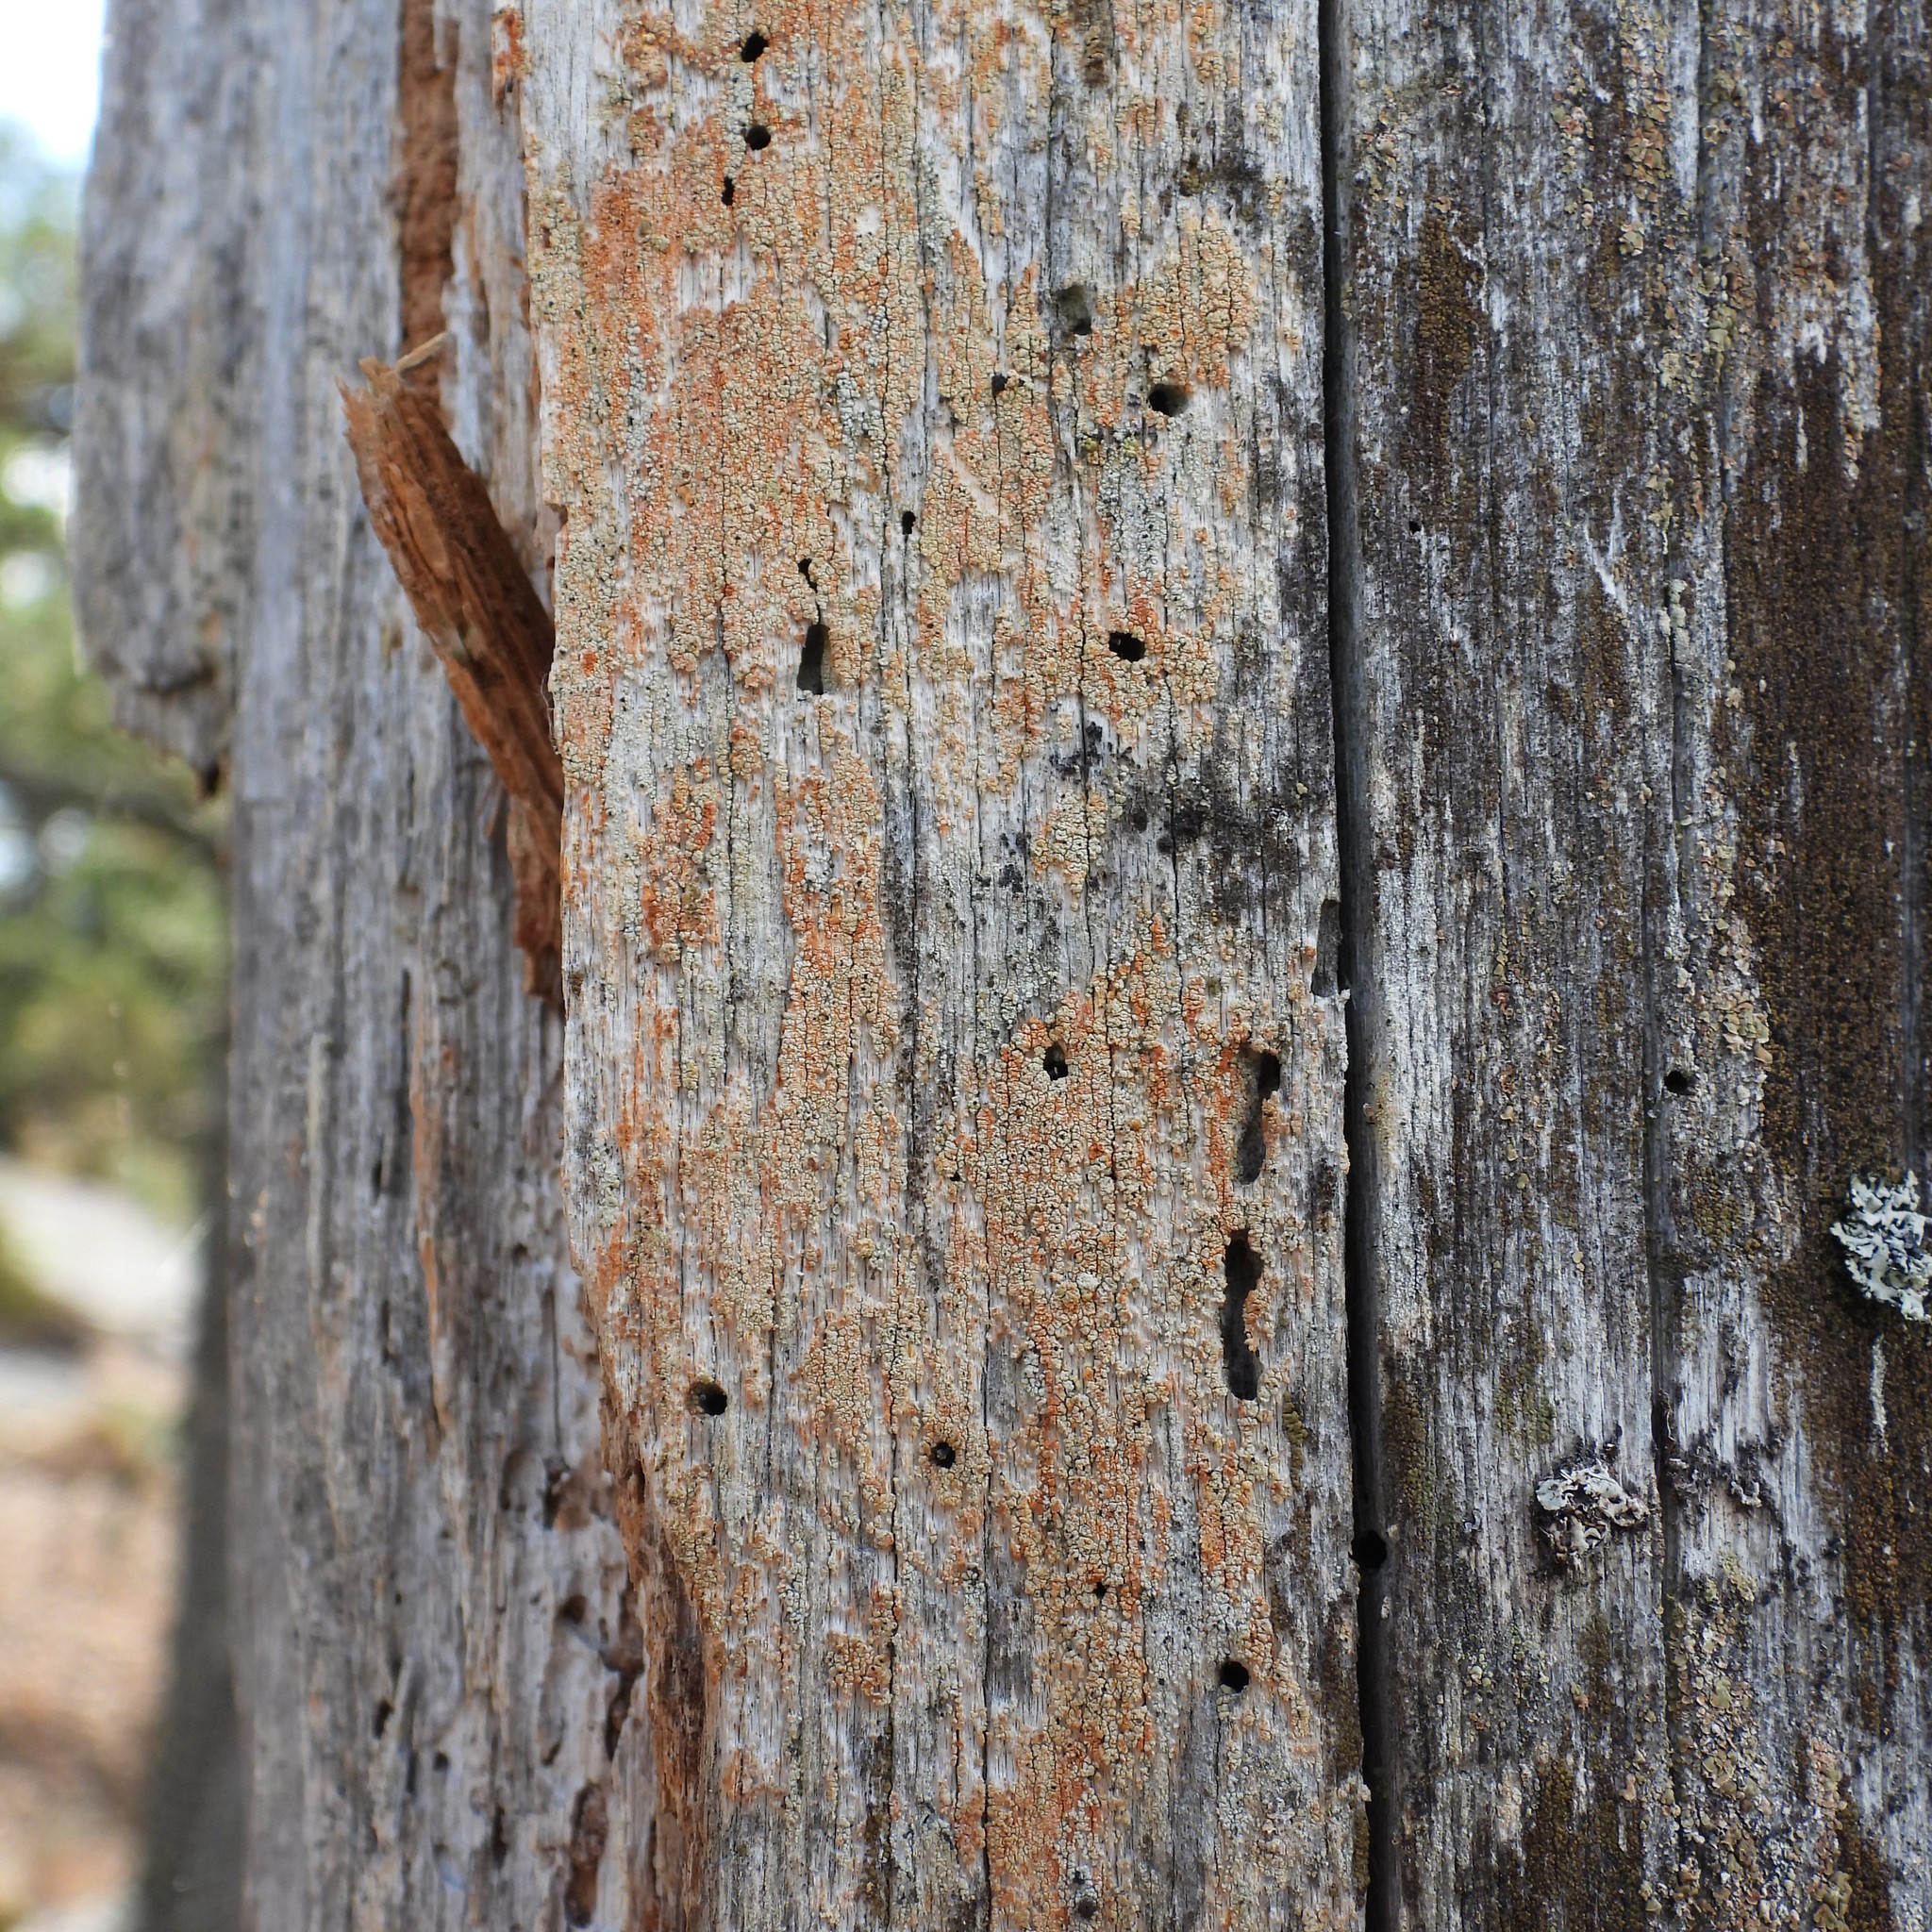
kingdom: Fungi
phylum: Ascomycota
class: Coniocybomycetes
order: Coniocybales
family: Coniocybaceae
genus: Chaenotheca
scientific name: Chaenotheca ferruginea
